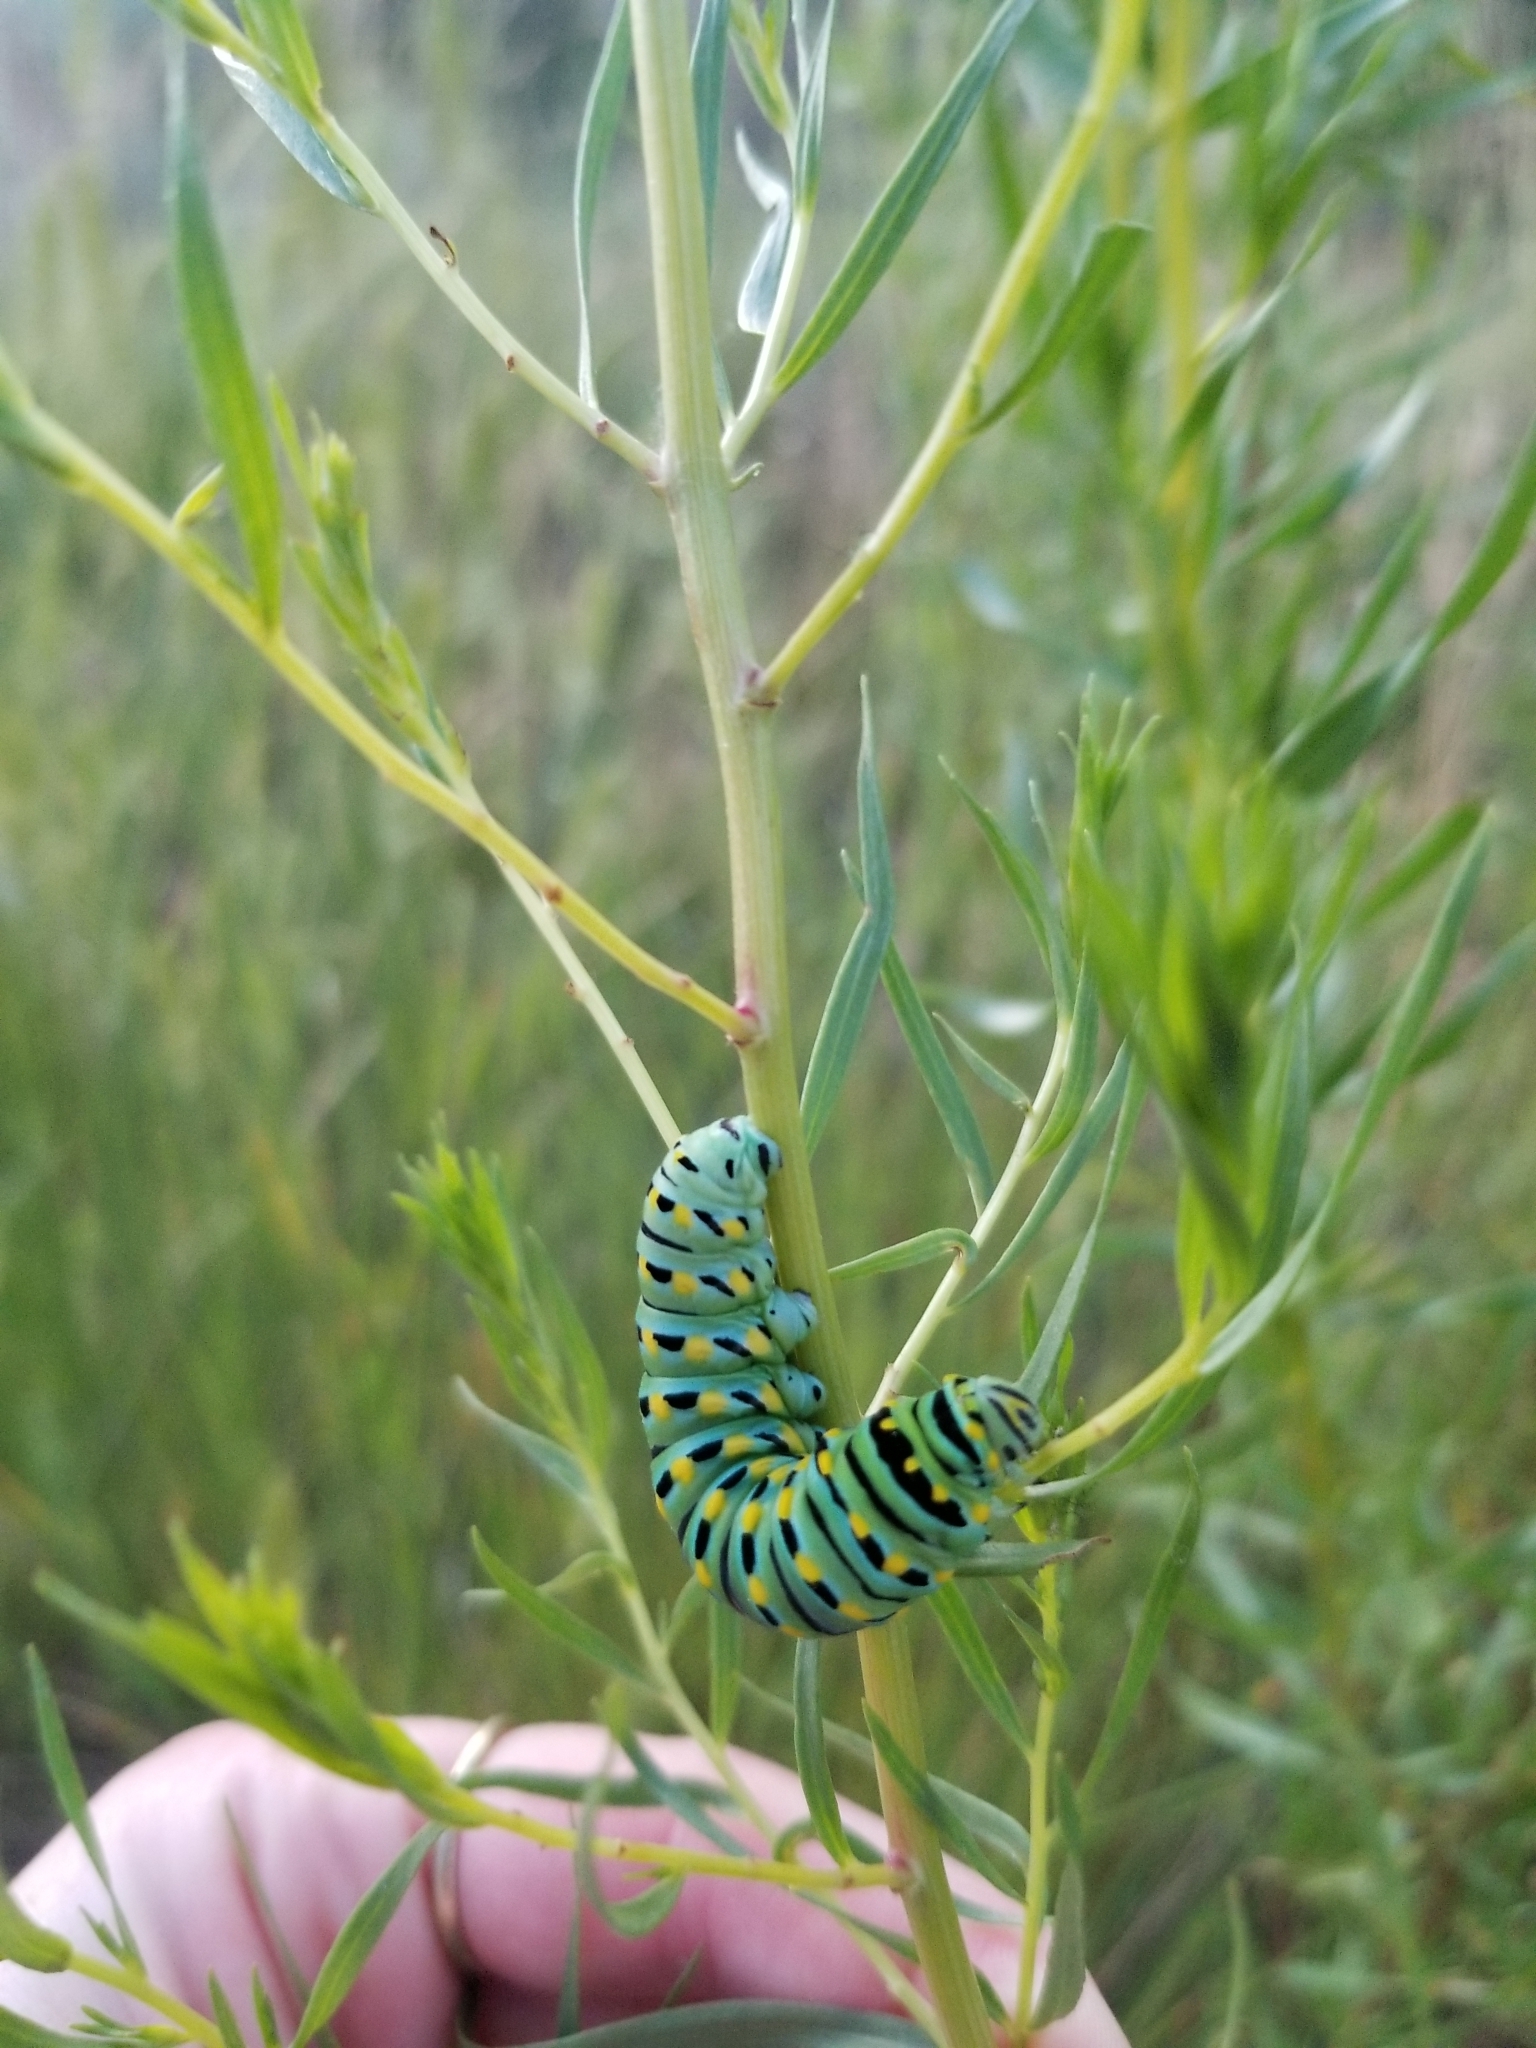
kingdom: Animalia
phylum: Arthropoda
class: Insecta
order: Lepidoptera
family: Papilionidae
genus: Papilio
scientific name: Papilio
